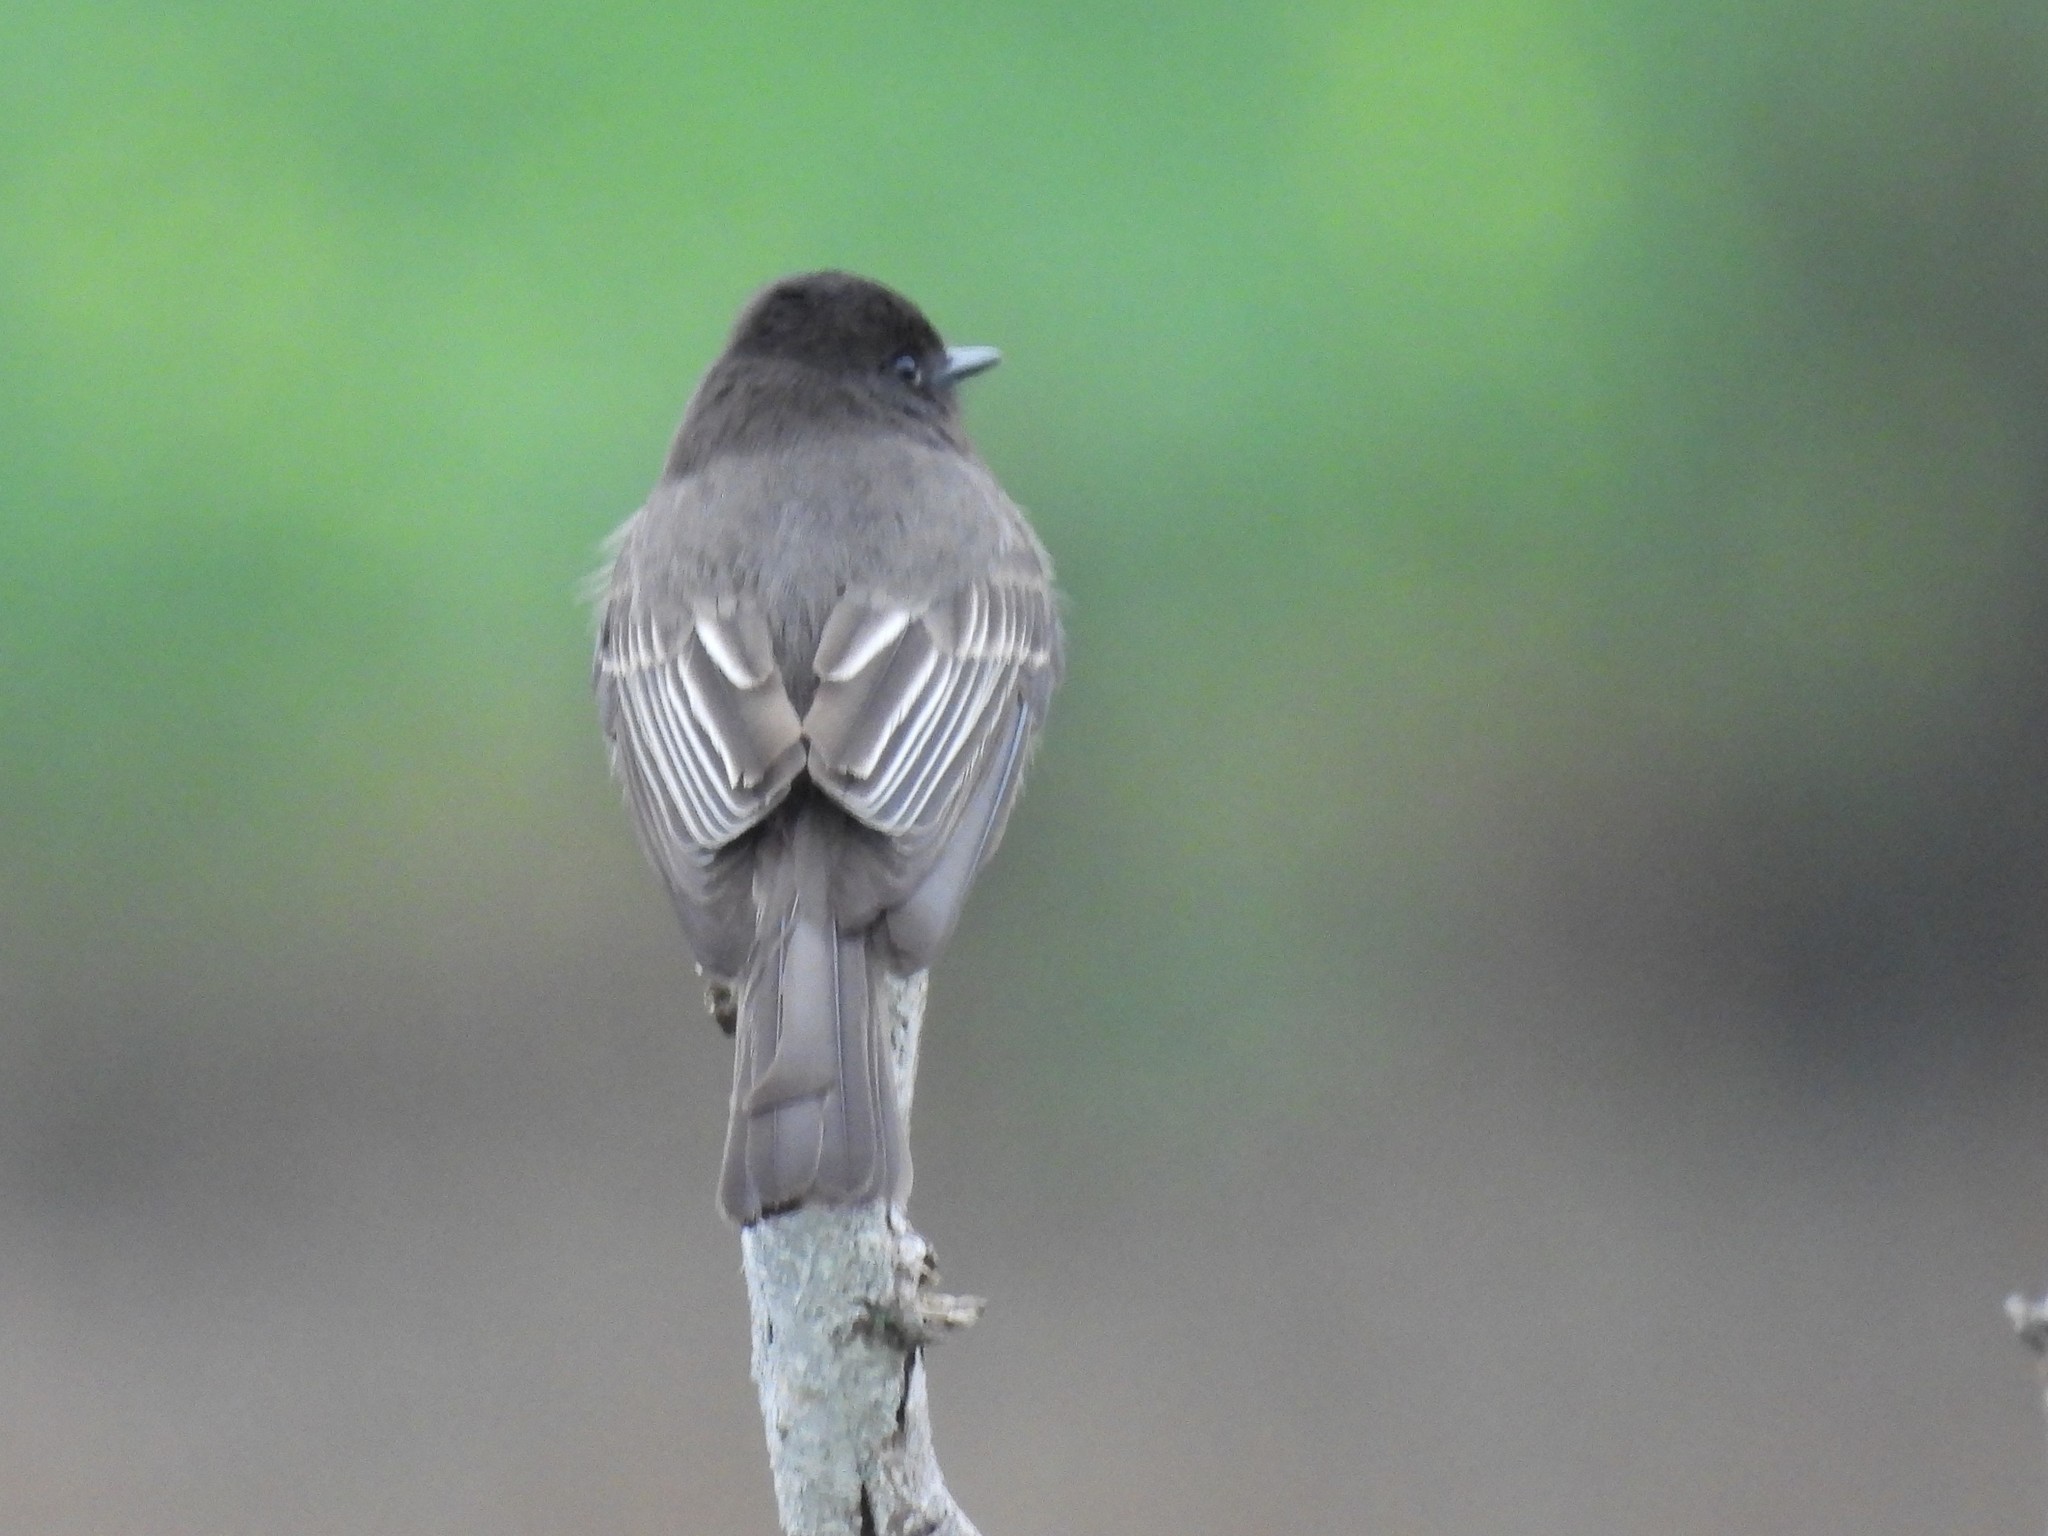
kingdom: Animalia
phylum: Chordata
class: Aves
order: Passeriformes
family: Tyrannidae
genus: Sayornis
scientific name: Sayornis nigricans
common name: Black phoebe
